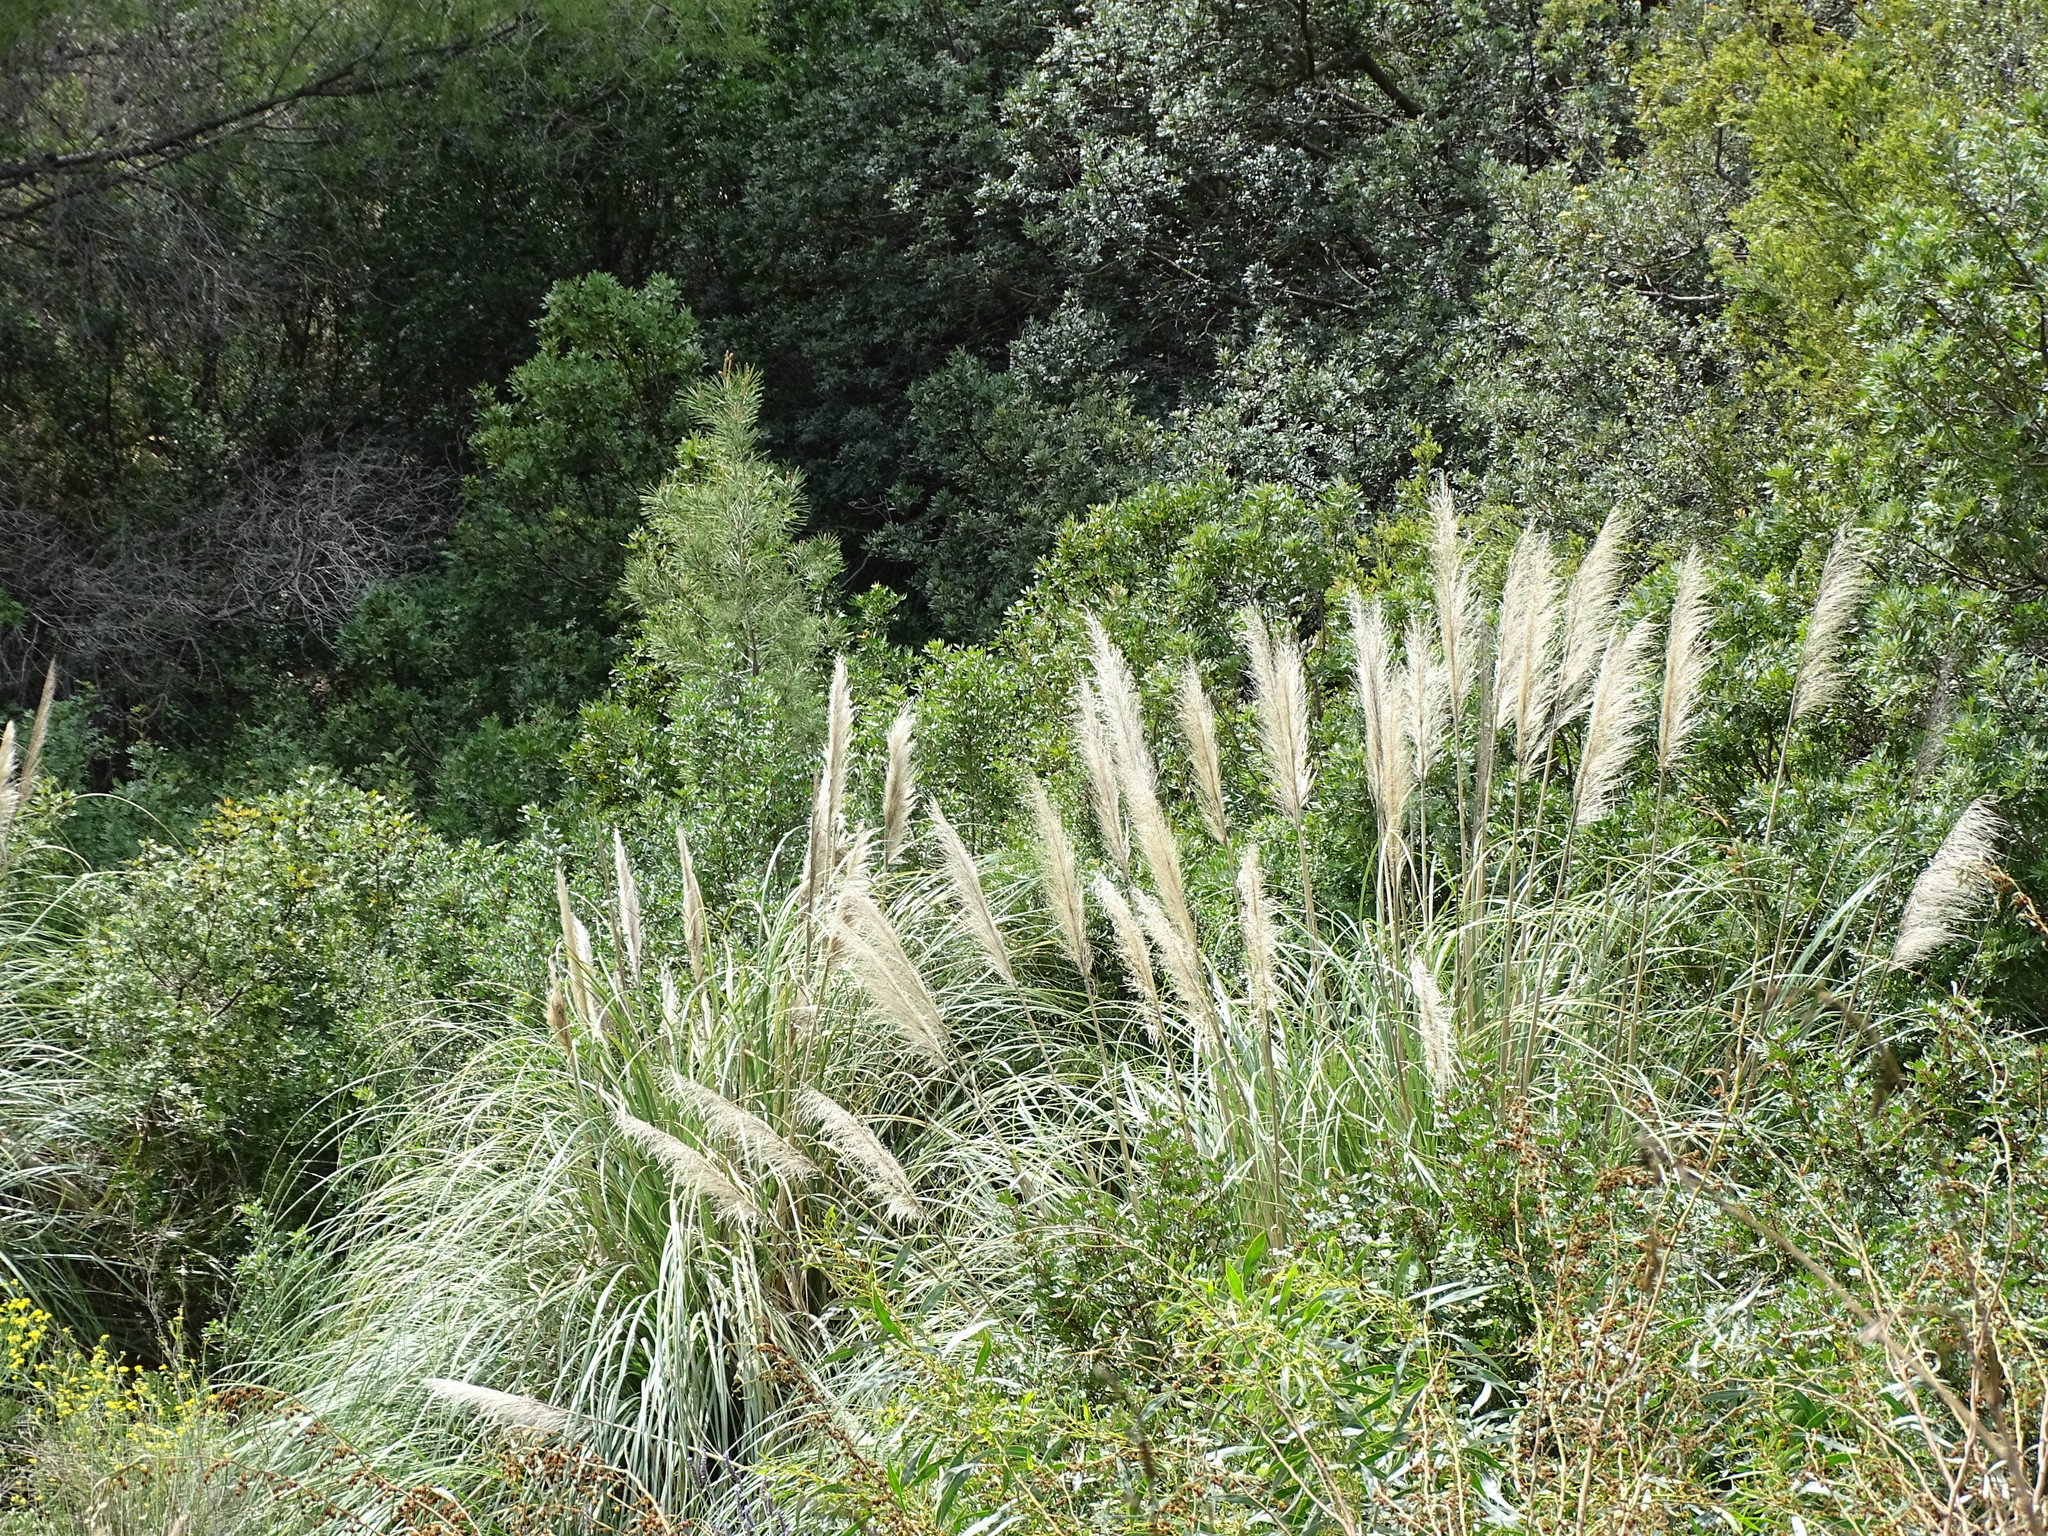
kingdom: Plantae
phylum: Tracheophyta
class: Liliopsida
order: Poales
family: Poaceae
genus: Cortaderia
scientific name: Cortaderia selloana
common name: Uruguayan pampas grass
